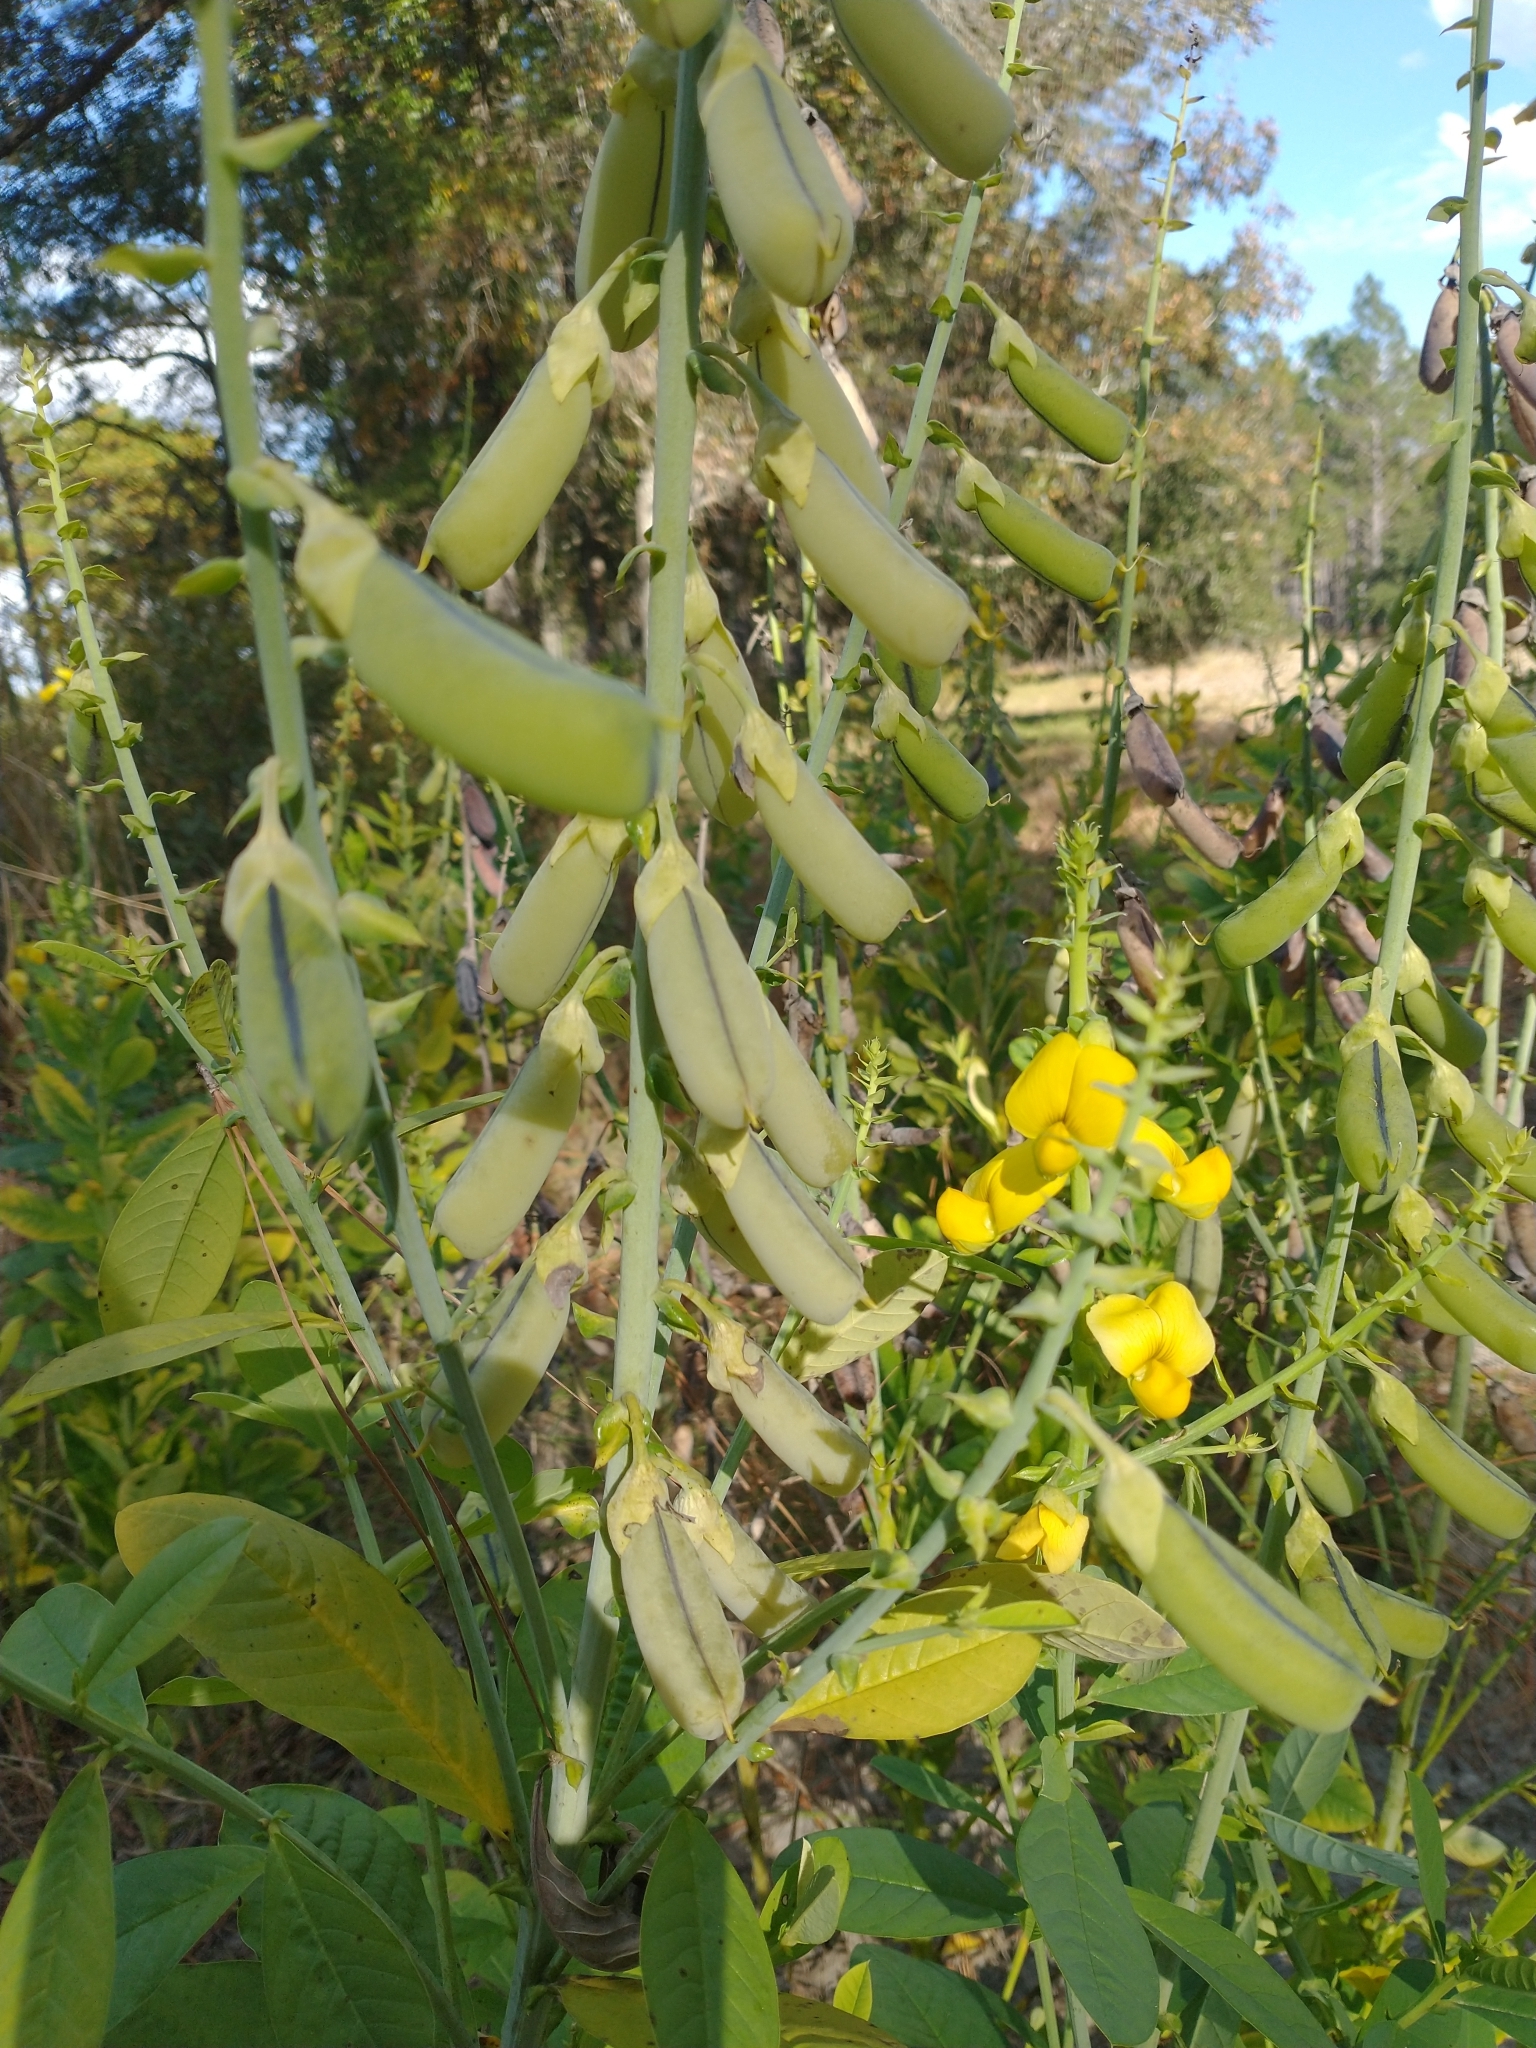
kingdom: Plantae
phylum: Tracheophyta
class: Magnoliopsida
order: Fabales
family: Fabaceae
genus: Crotalaria
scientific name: Crotalaria spectabilis
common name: Showy rattlebox
